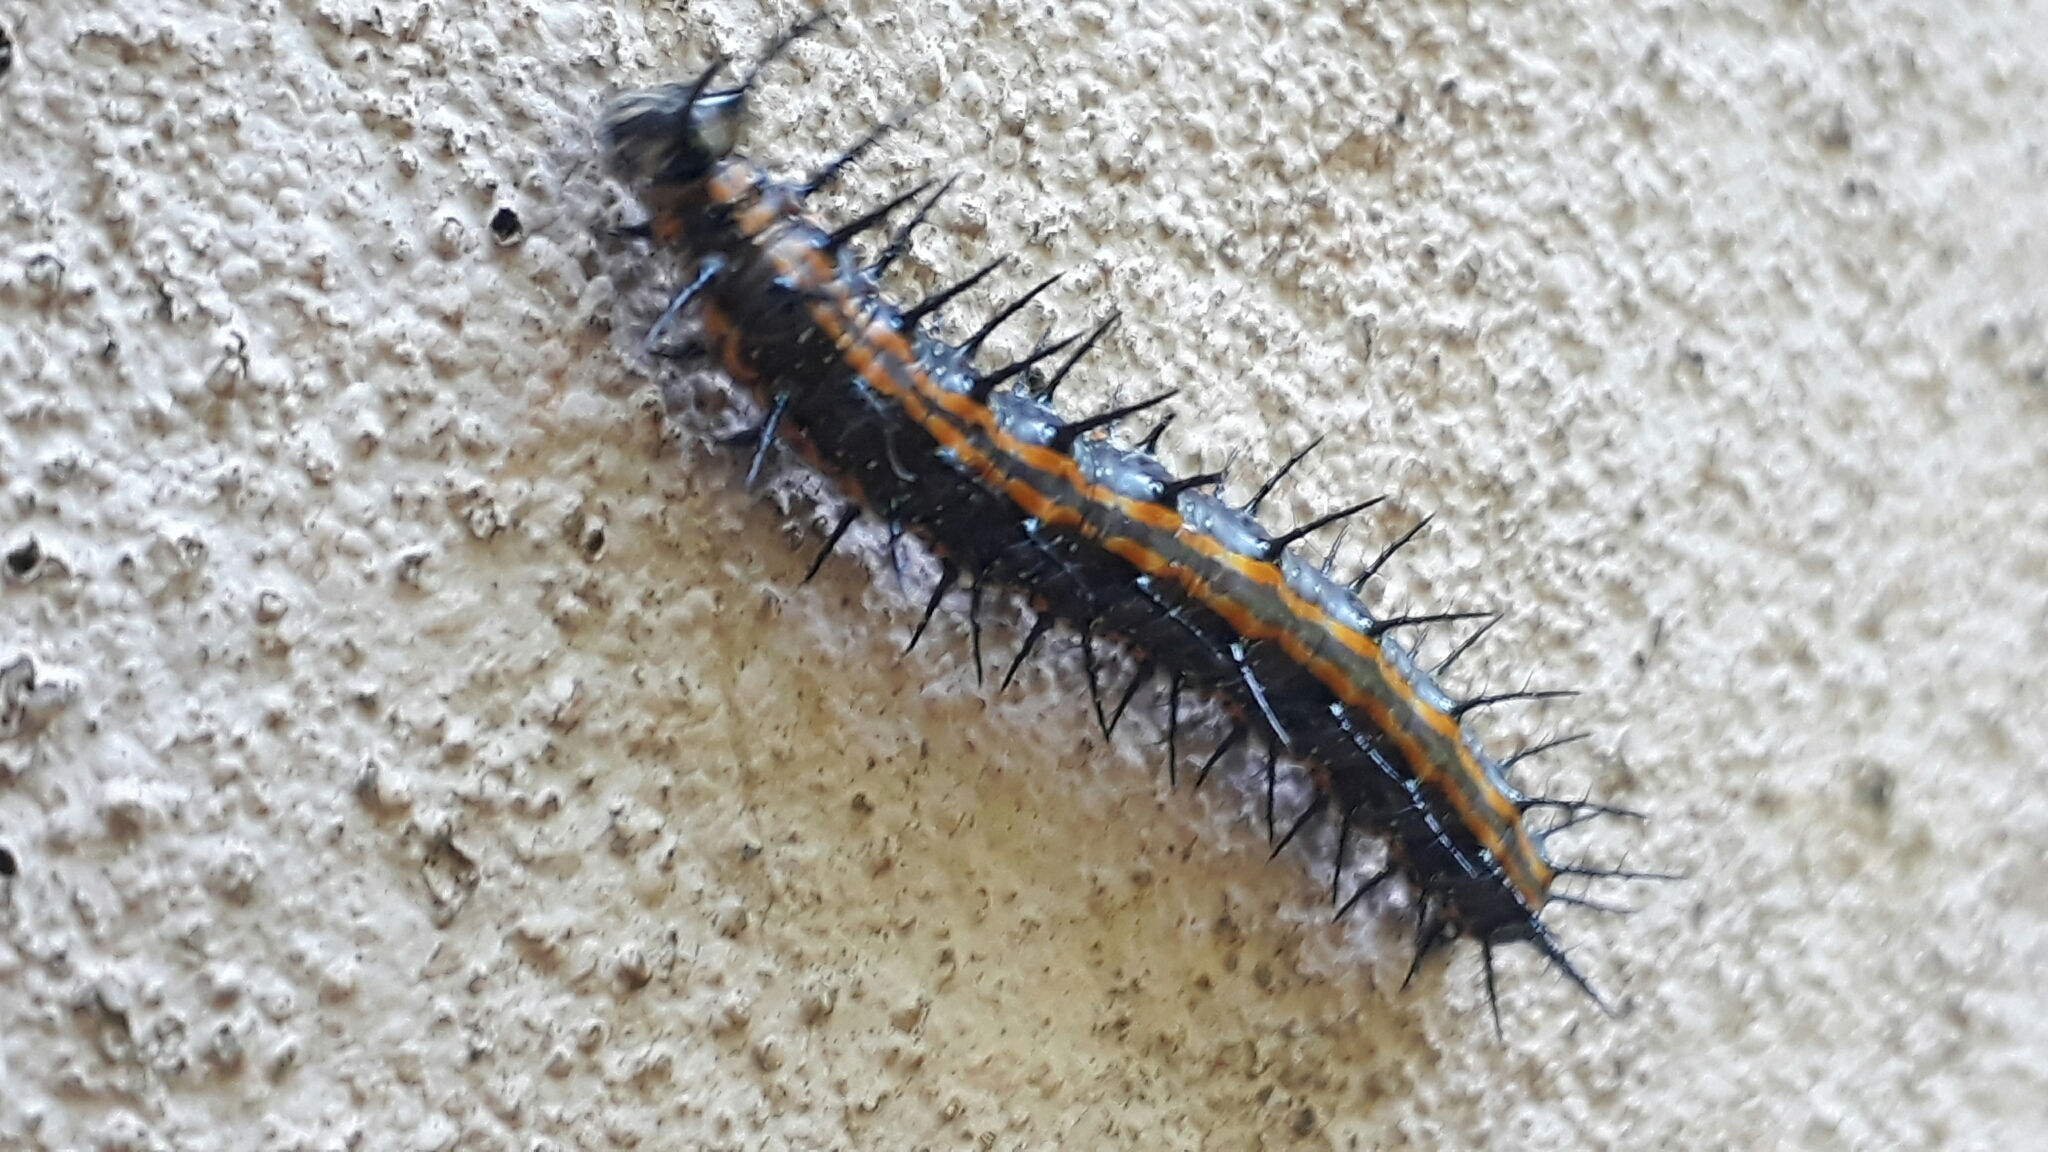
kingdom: Animalia
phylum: Arthropoda
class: Insecta
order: Lepidoptera
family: Nymphalidae
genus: Dione
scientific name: Dione vanillae
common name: Gulf fritillary
